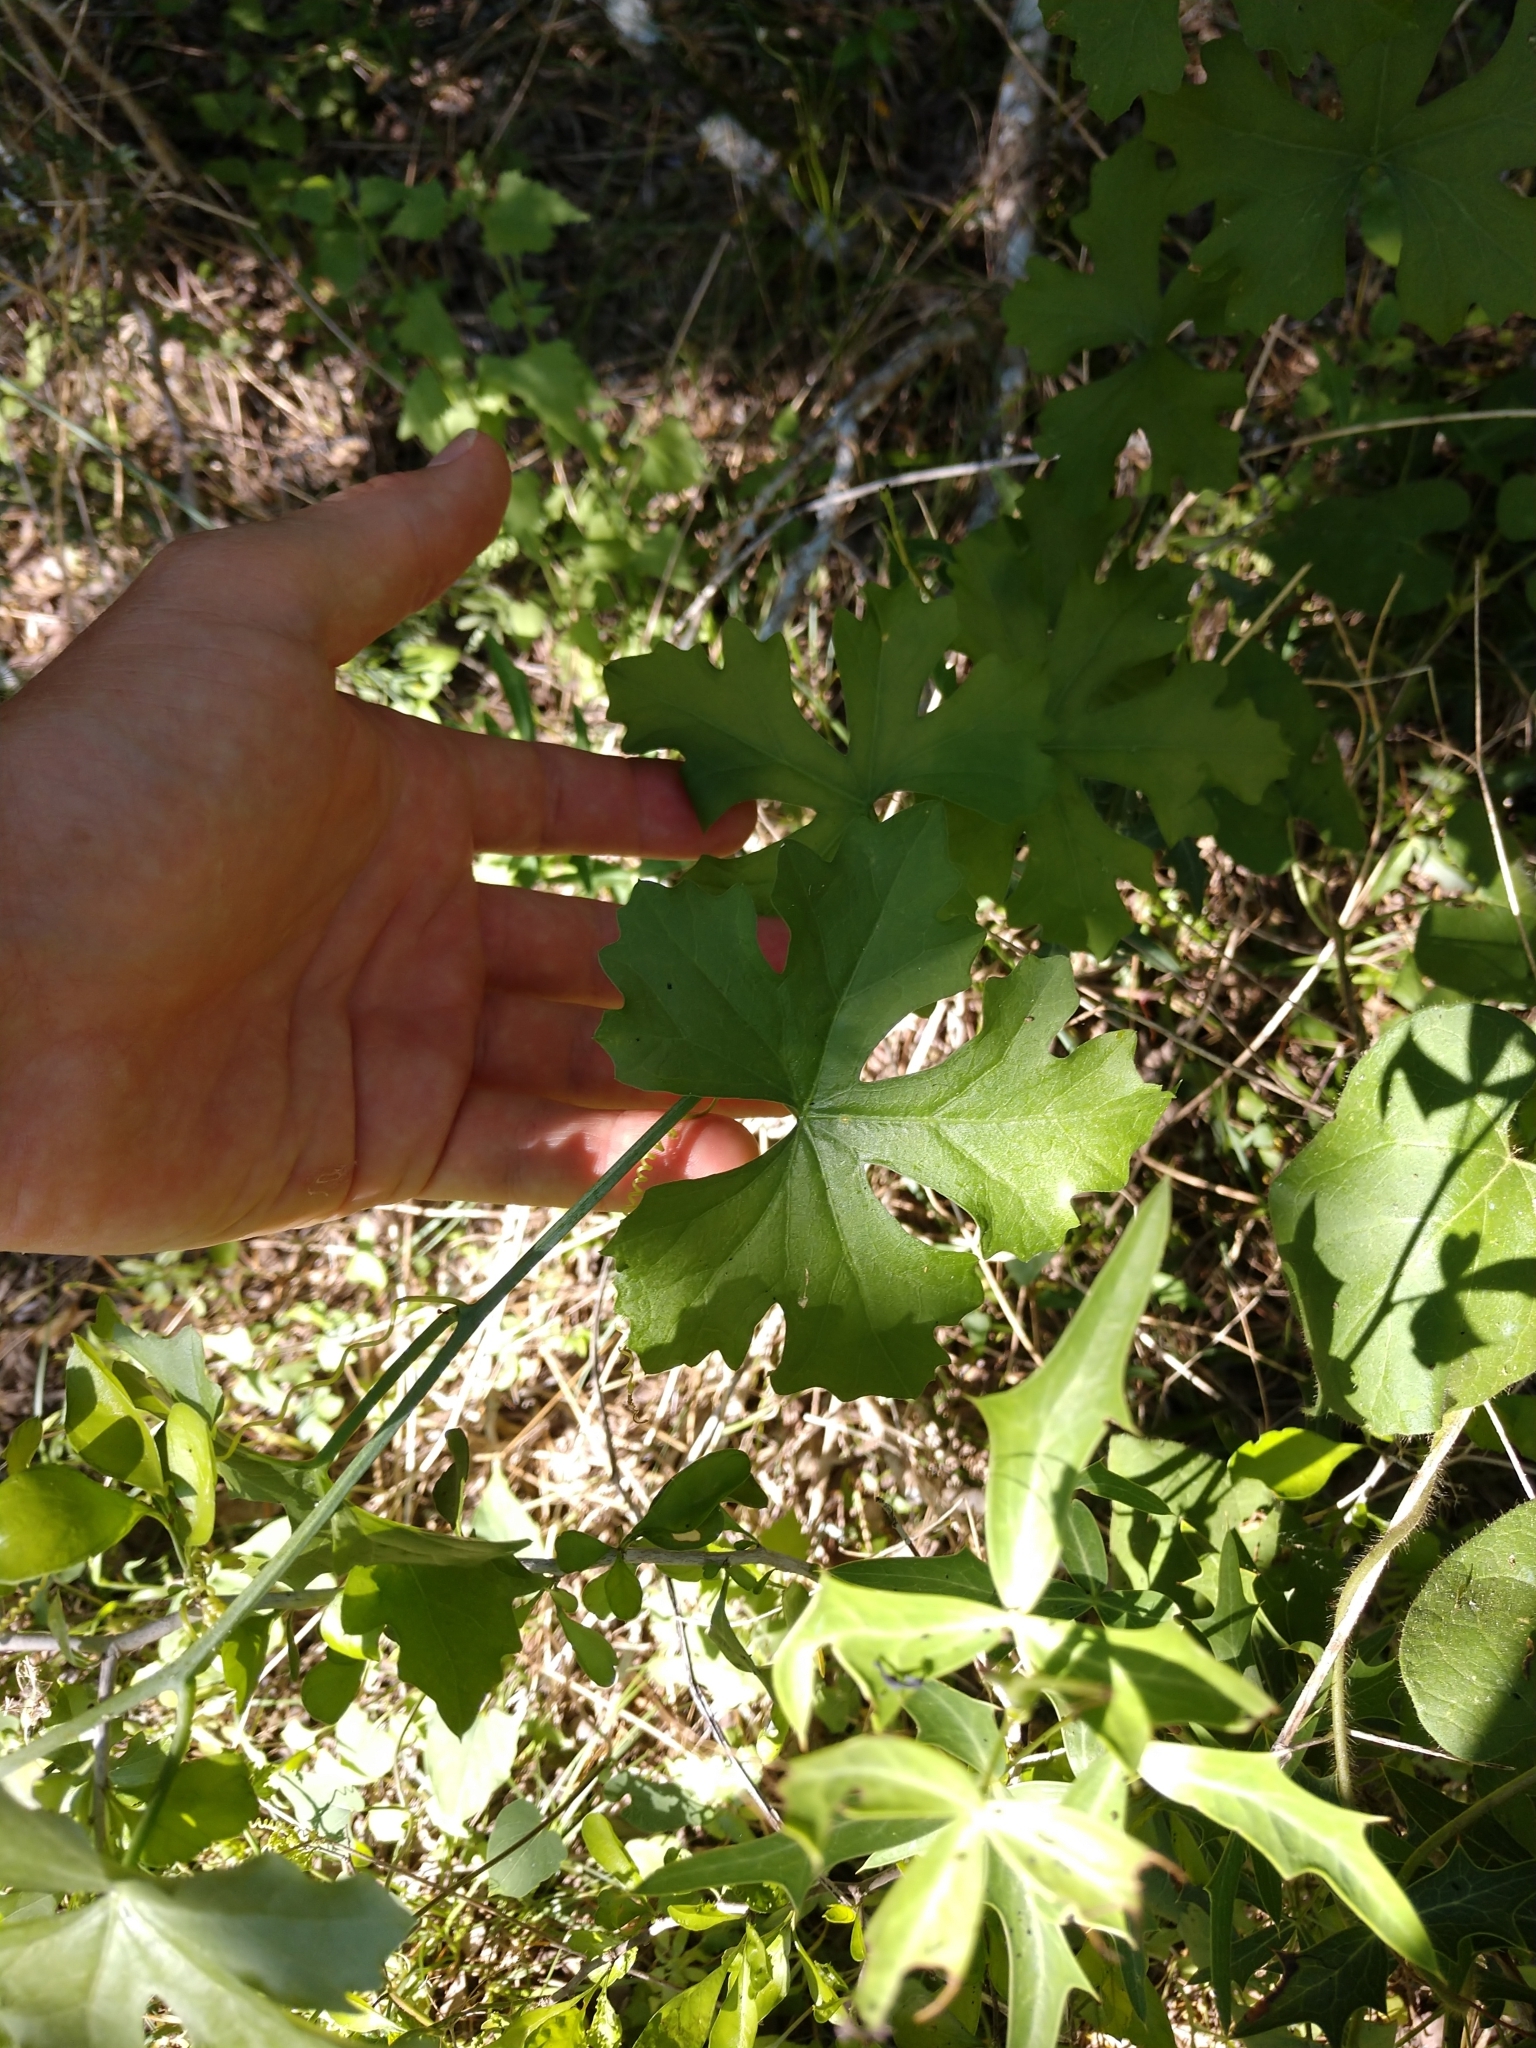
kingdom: Plantae
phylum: Tracheophyta
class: Magnoliopsida
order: Cucurbitales
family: Cucurbitaceae
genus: Ibervillea
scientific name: Ibervillea lindheimeri
